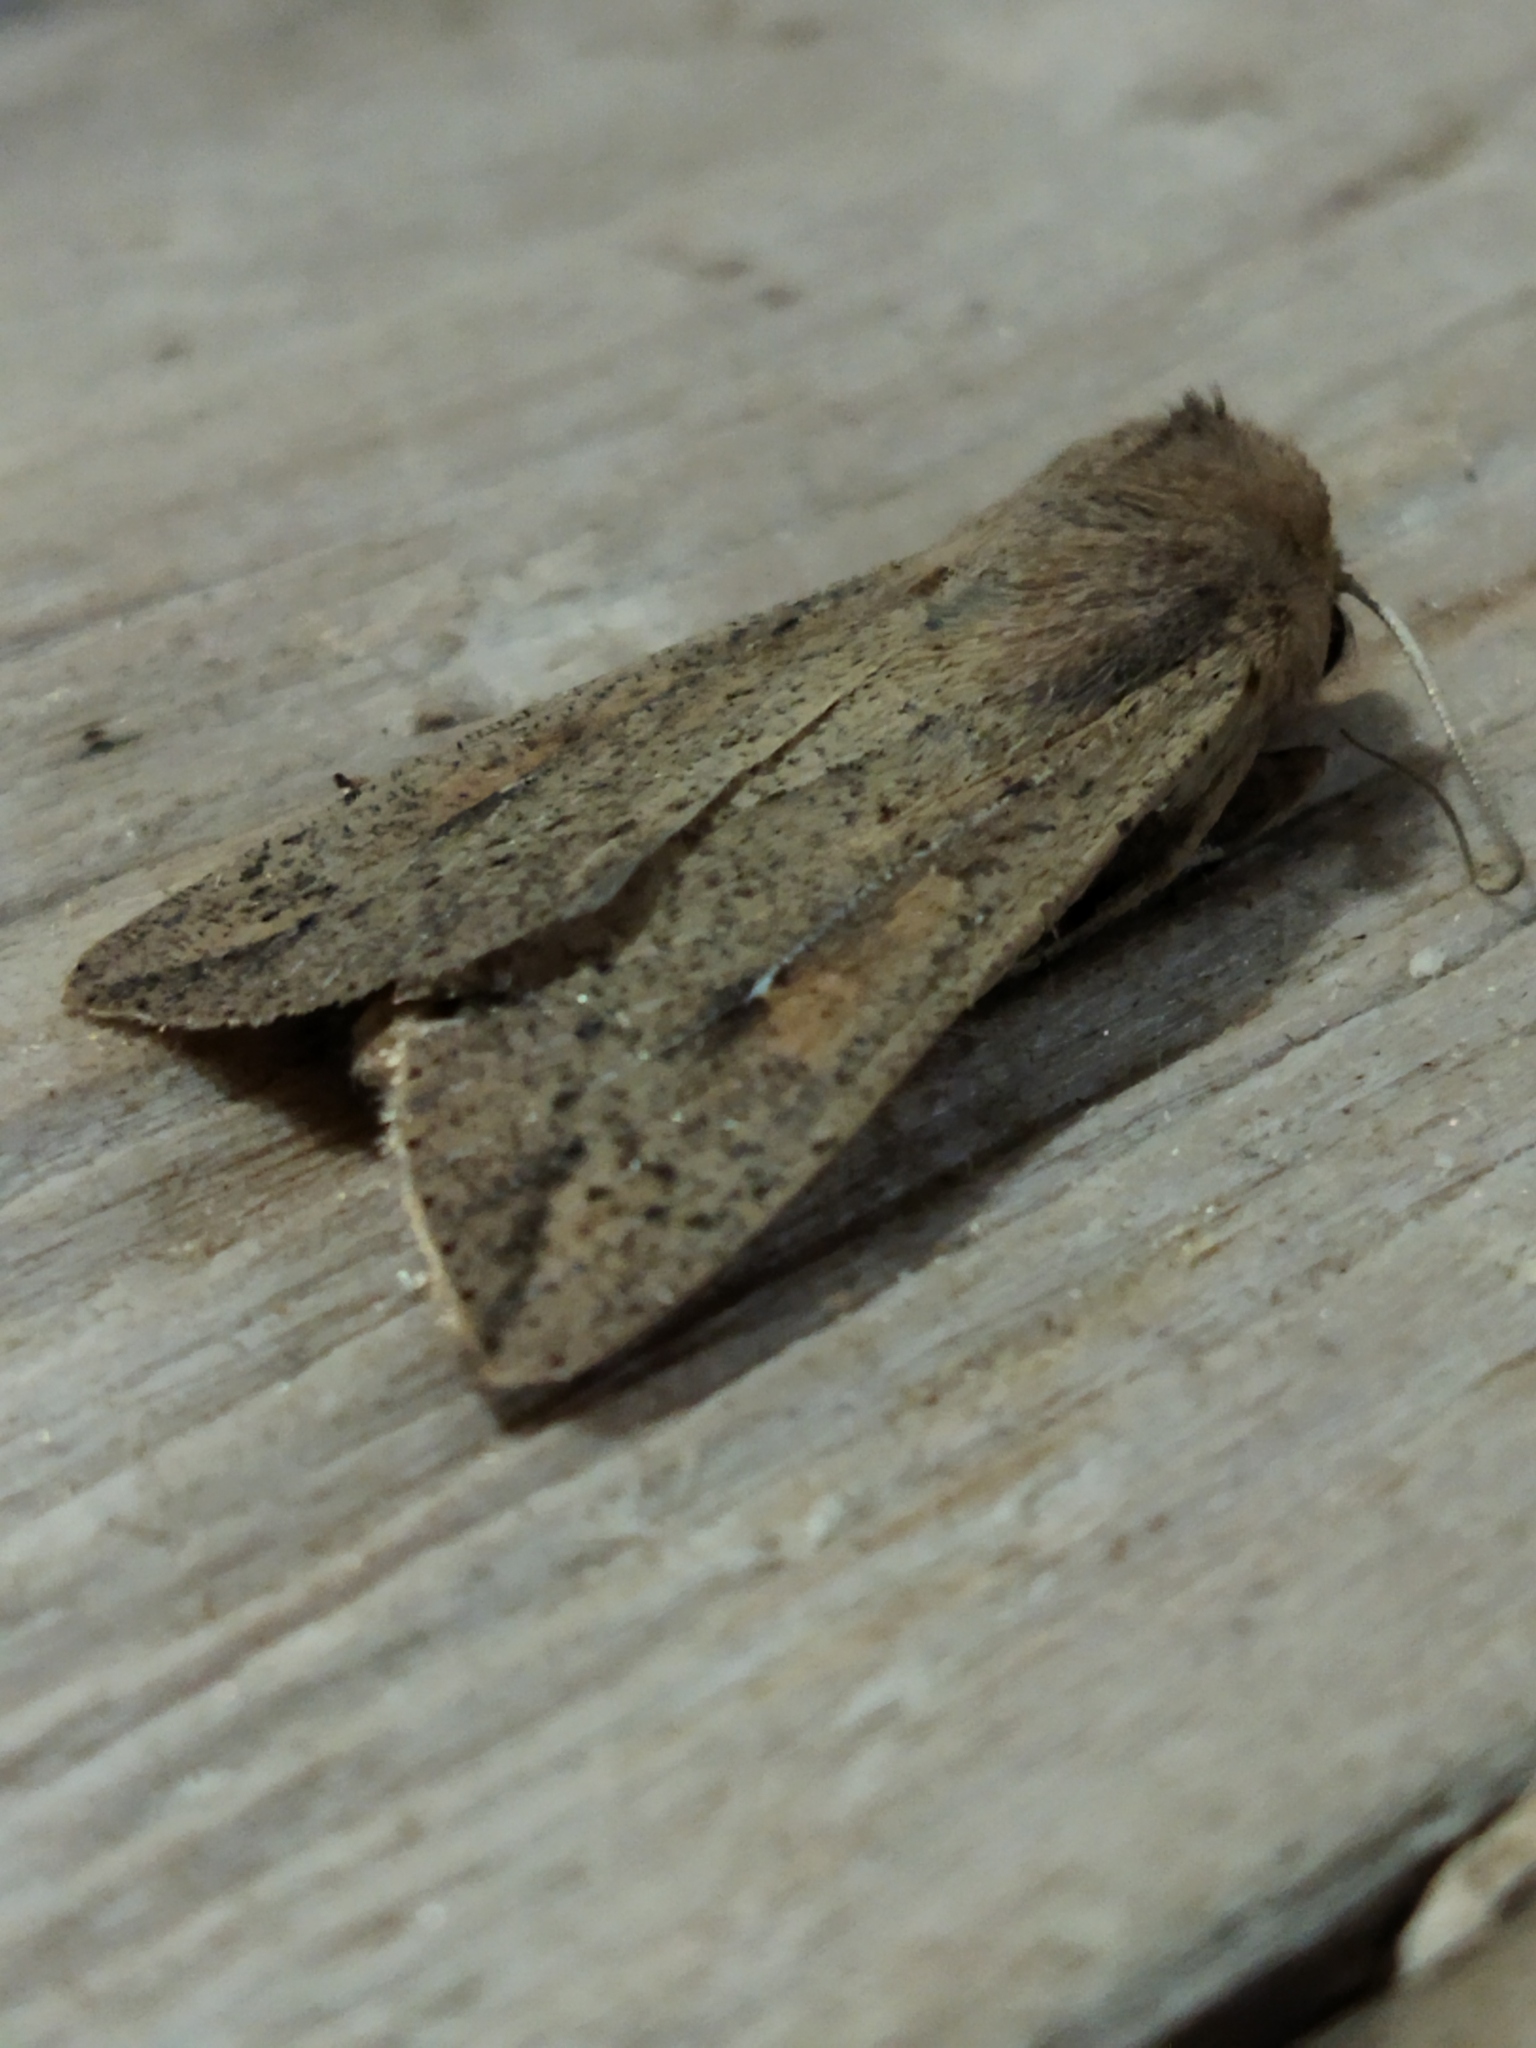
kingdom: Animalia
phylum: Arthropoda
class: Insecta
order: Lepidoptera
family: Noctuidae
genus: Mythimna
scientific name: Mythimna unipuncta
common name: White-speck
